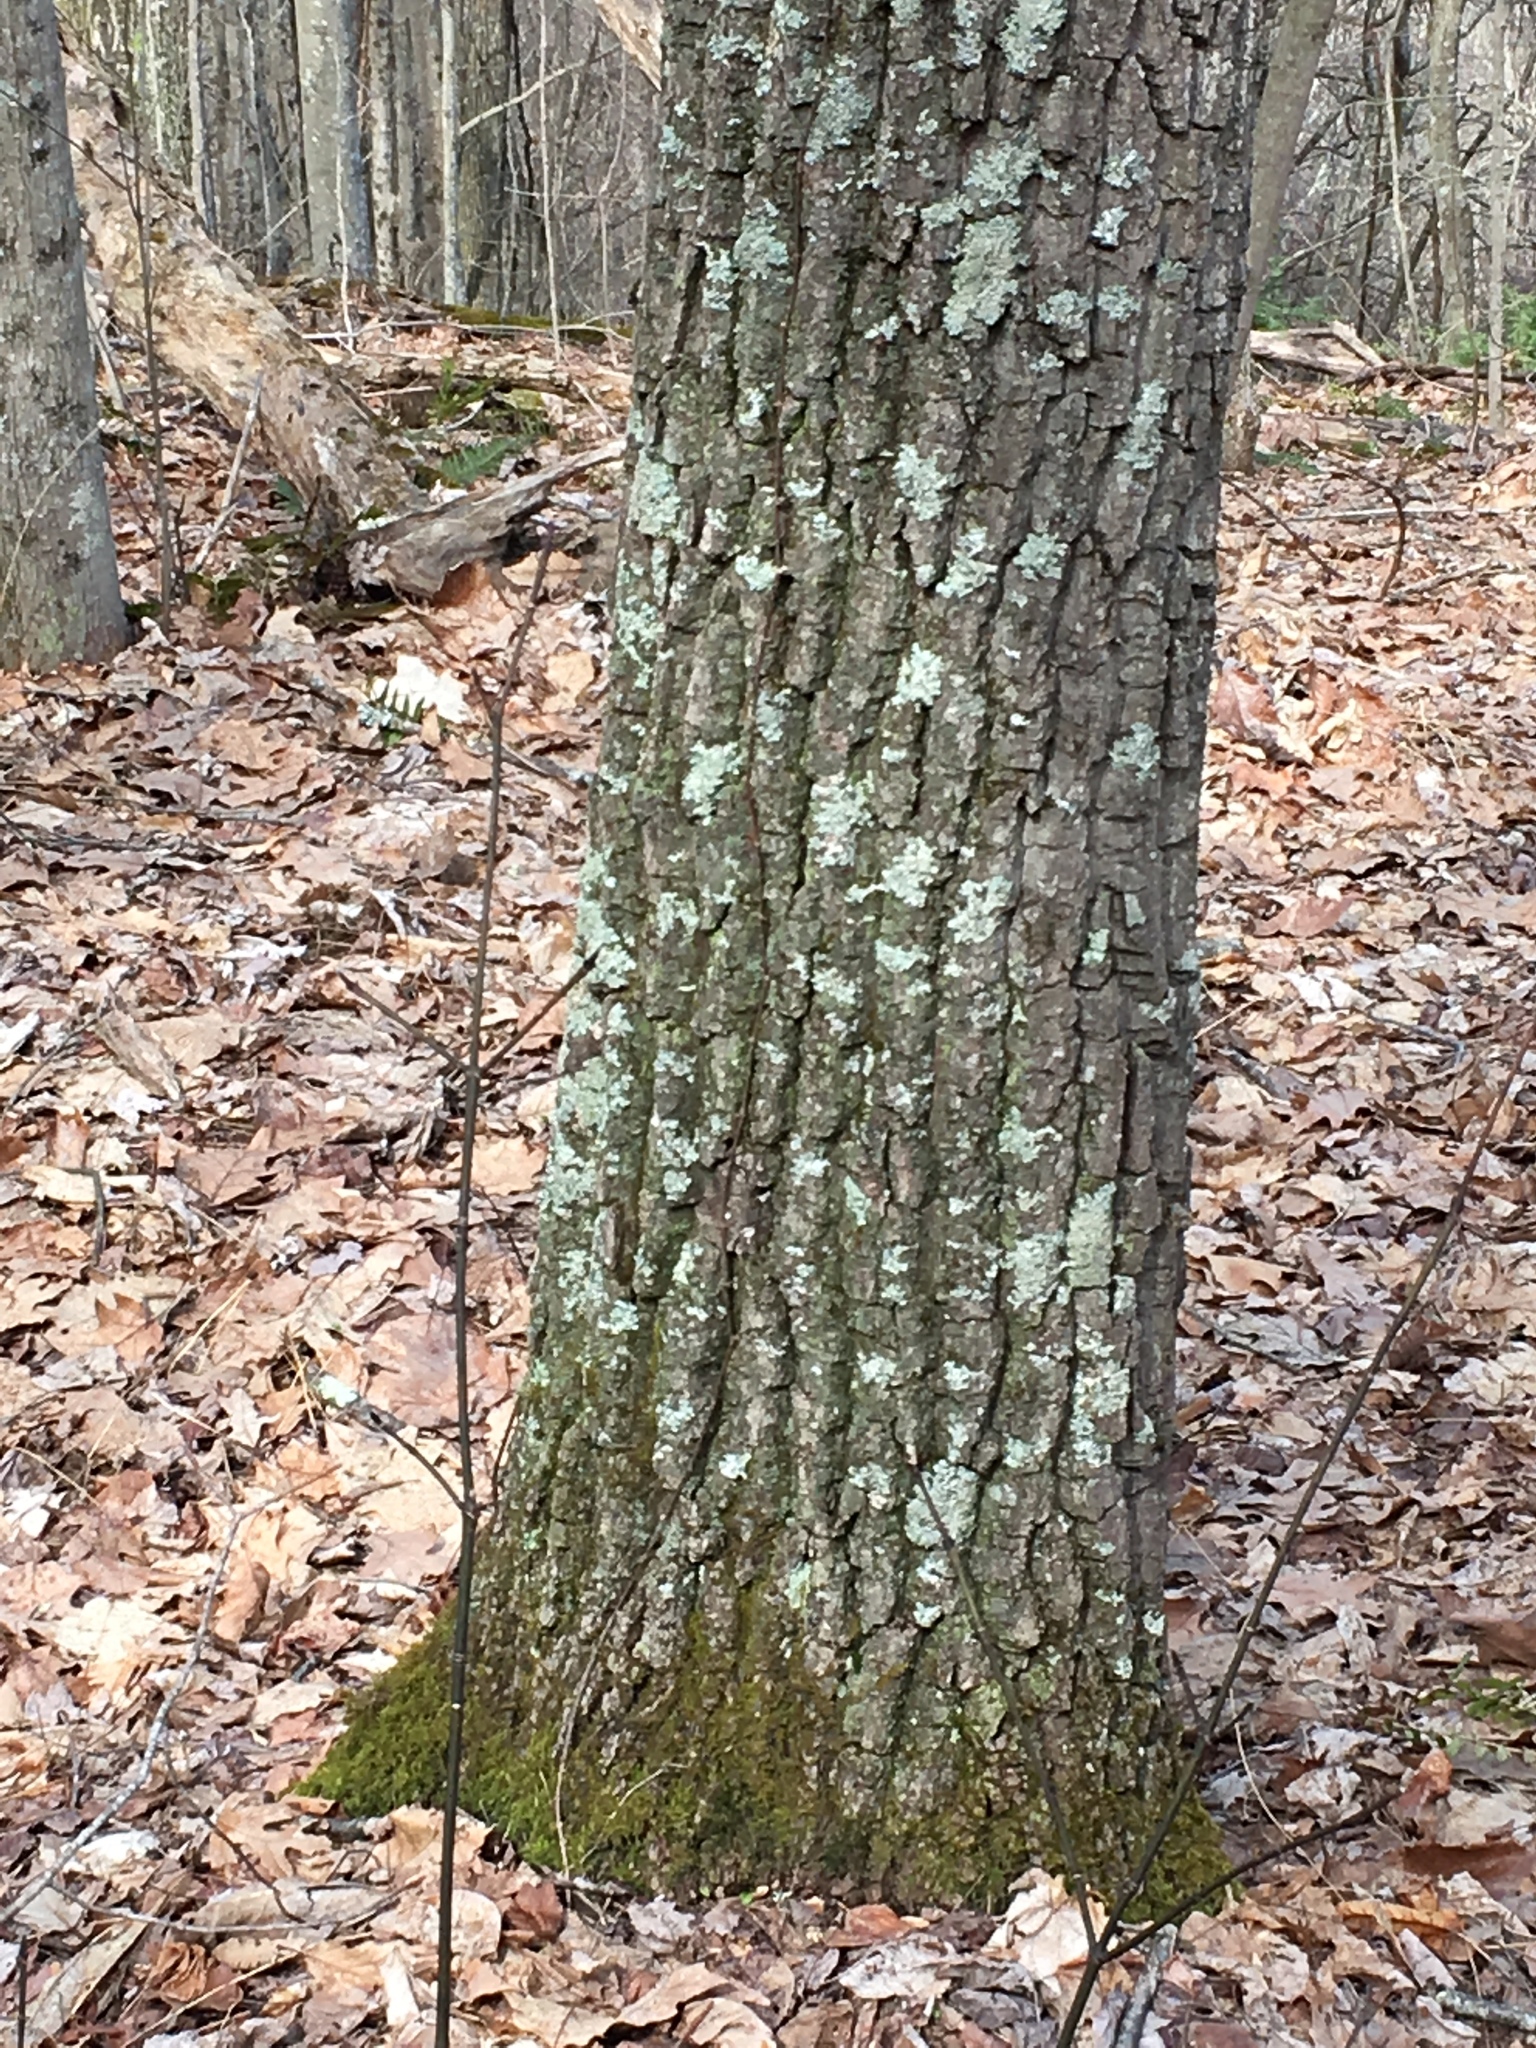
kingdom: Plantae
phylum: Tracheophyta
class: Magnoliopsida
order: Fagales
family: Fagaceae
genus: Quercus
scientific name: Quercus montana
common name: Chestnut oak
